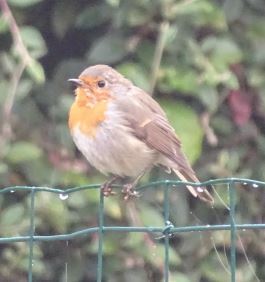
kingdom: Animalia
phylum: Chordata
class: Aves
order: Passeriformes
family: Muscicapidae
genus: Erithacus
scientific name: Erithacus rubecula
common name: European robin
